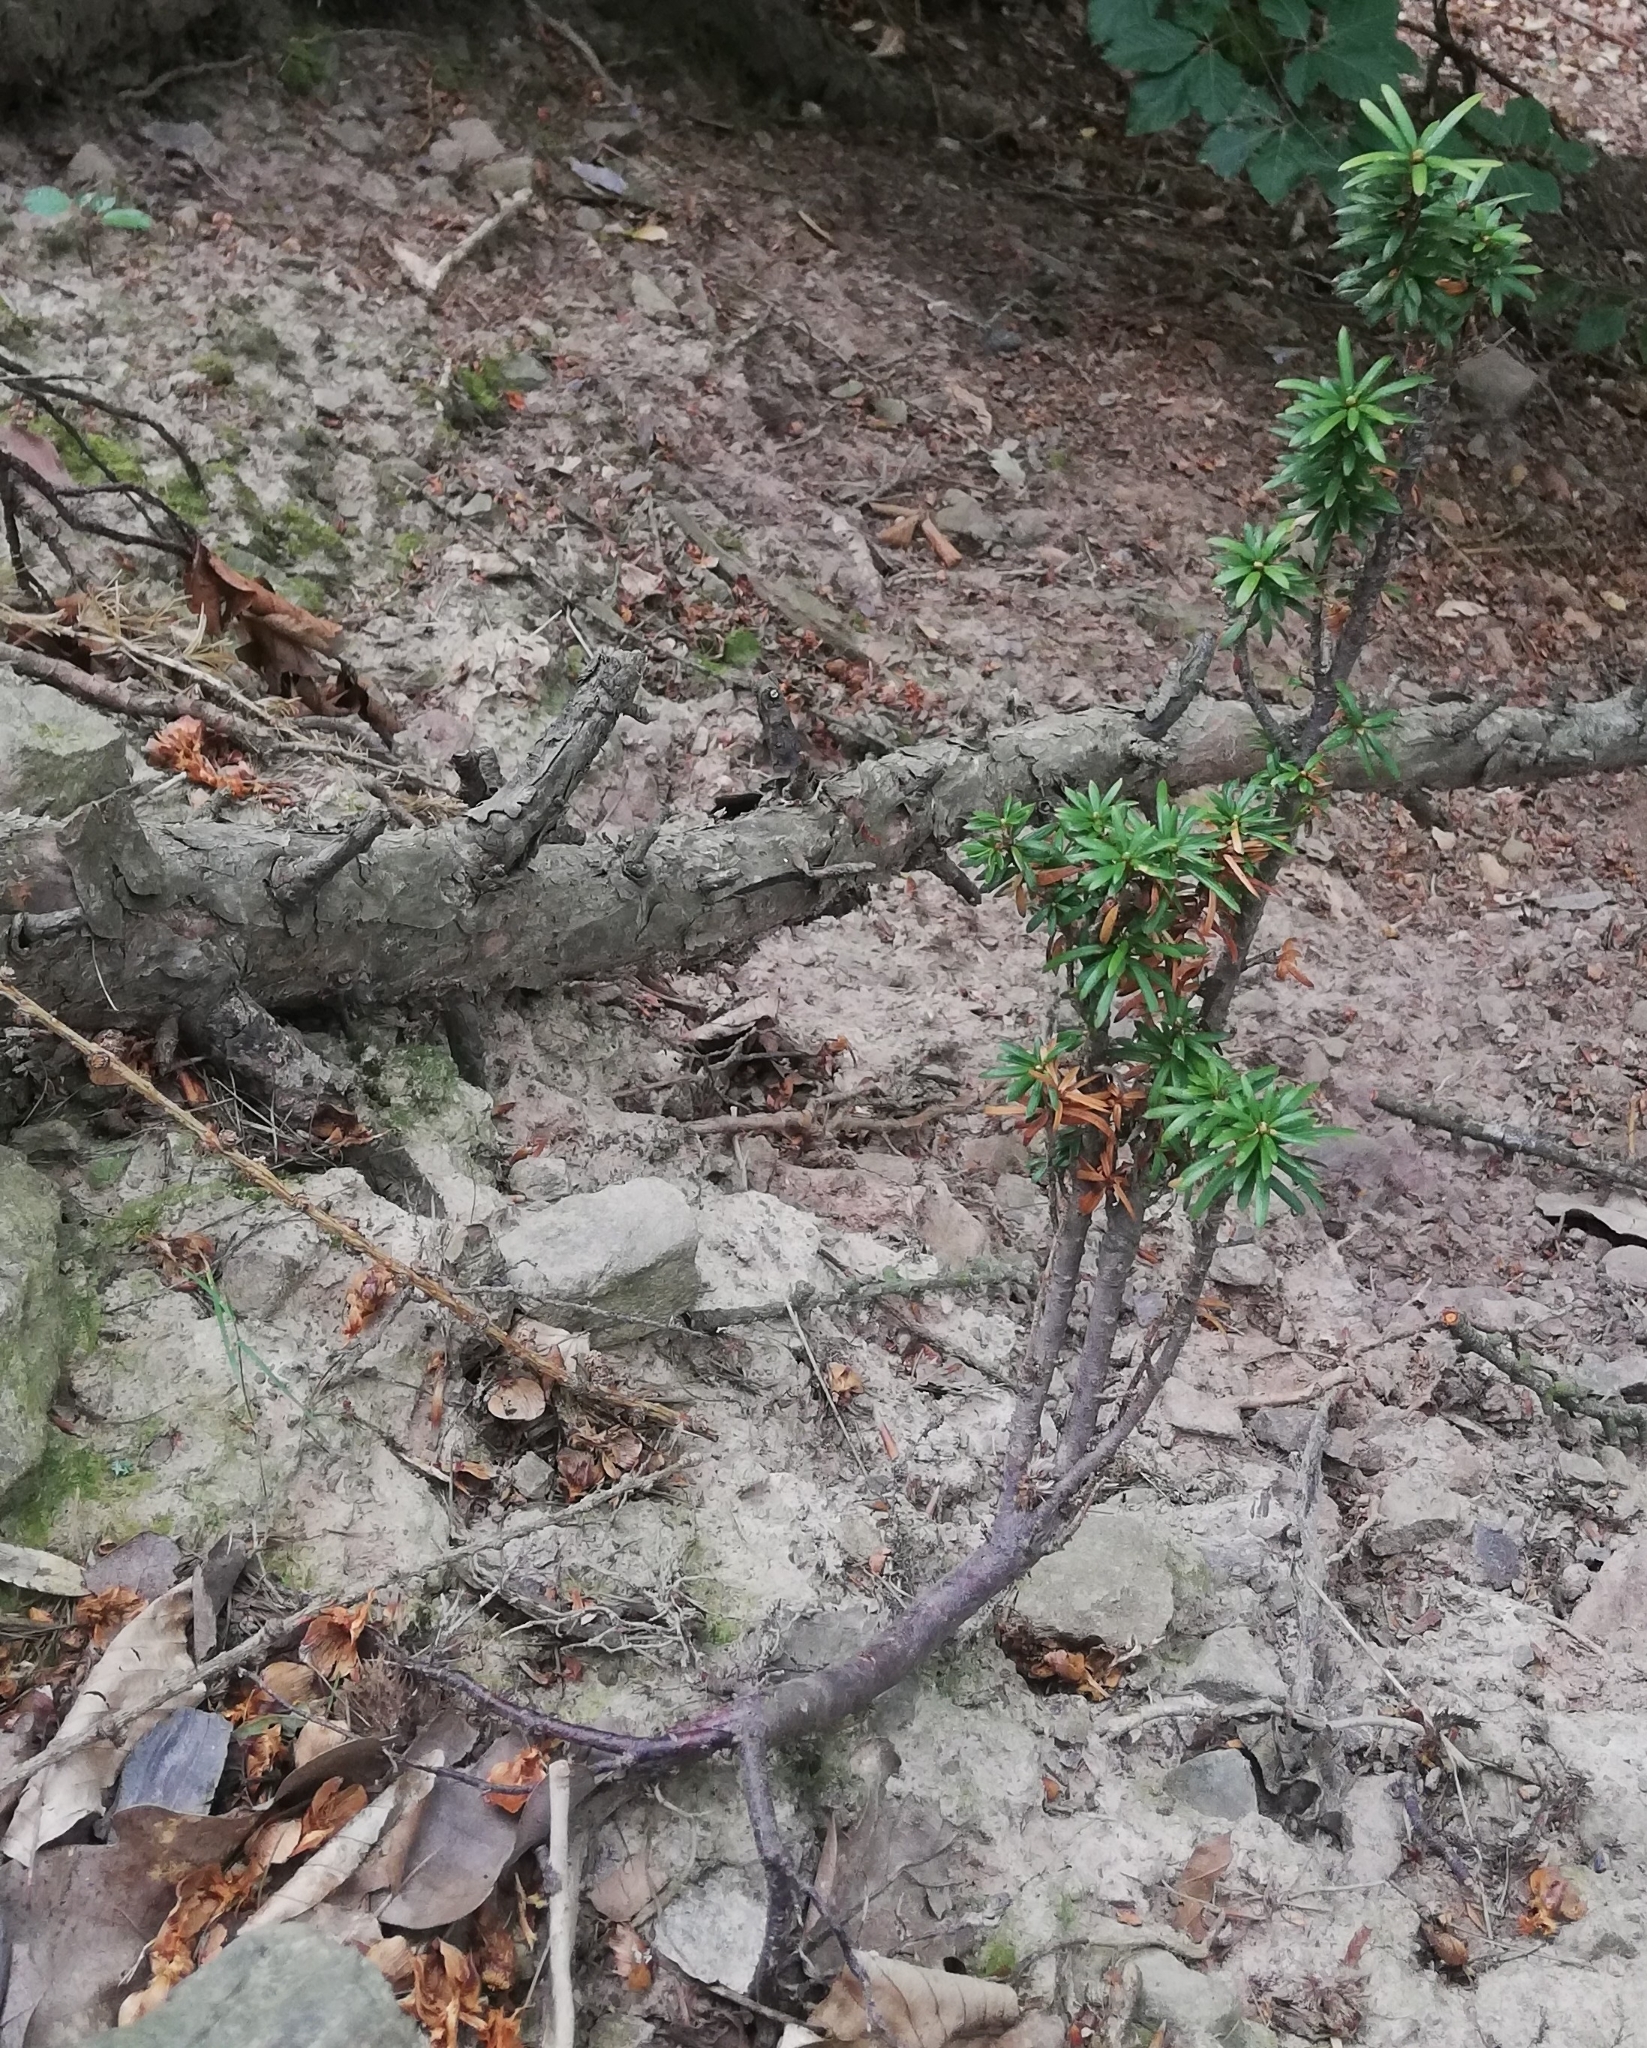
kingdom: Plantae
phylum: Tracheophyta
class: Pinopsida
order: Pinales
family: Taxaceae
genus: Taxus
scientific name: Taxus baccata
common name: Yew
